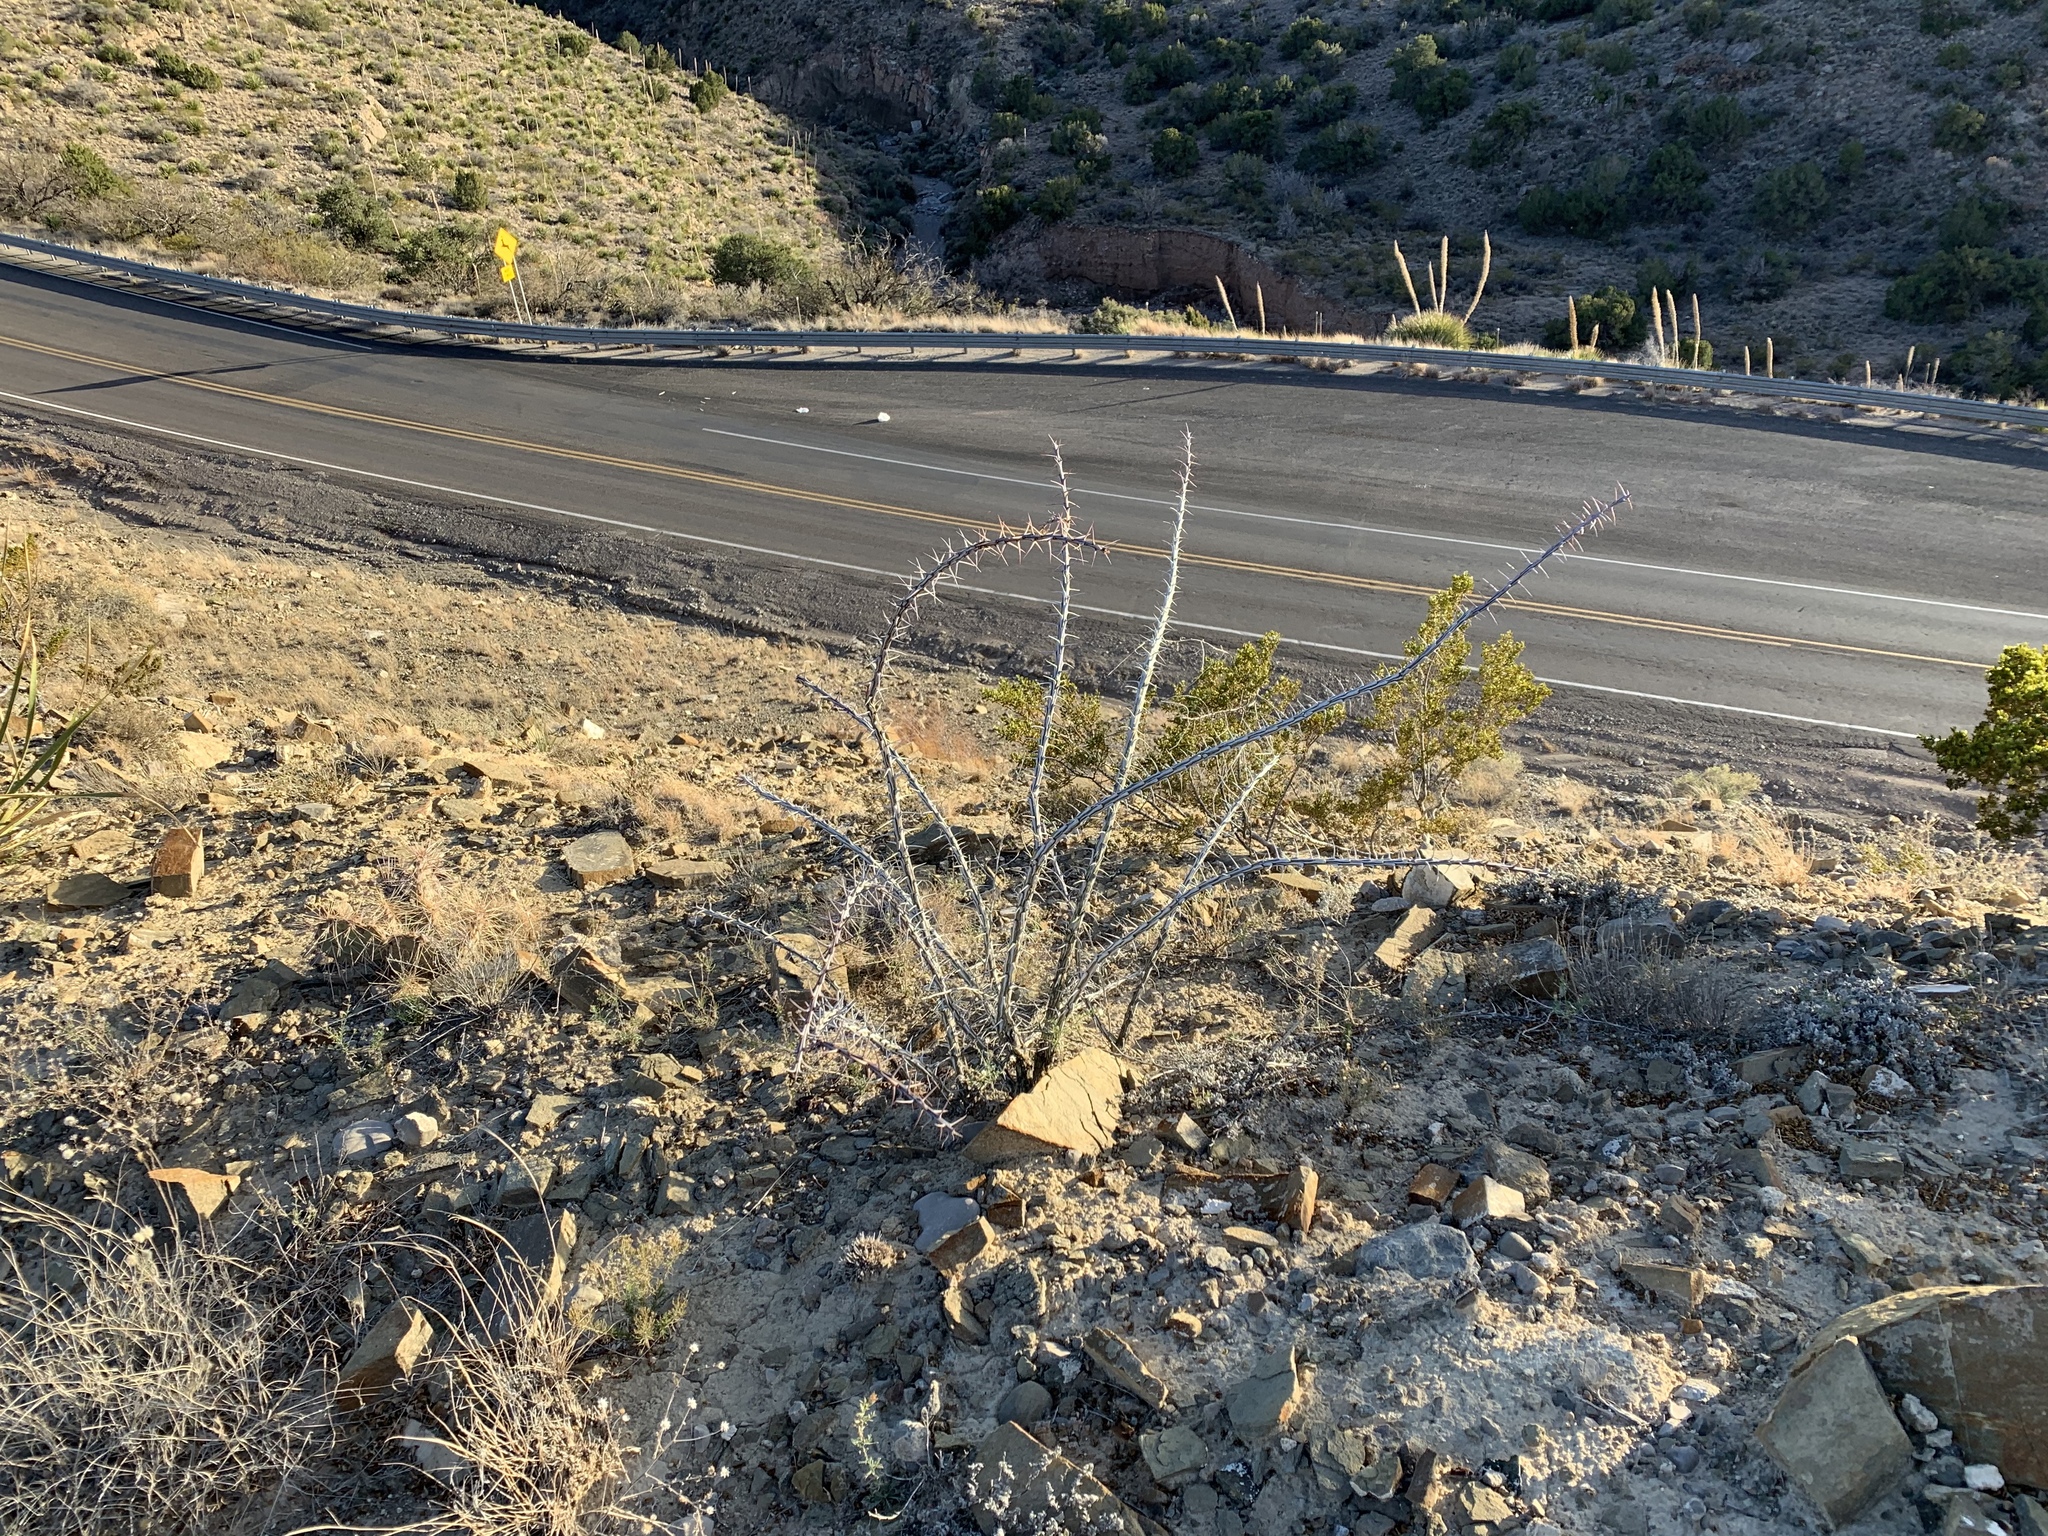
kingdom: Plantae
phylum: Tracheophyta
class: Magnoliopsida
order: Ericales
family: Fouquieriaceae
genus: Fouquieria
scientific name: Fouquieria splendens
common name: Vine-cactus
